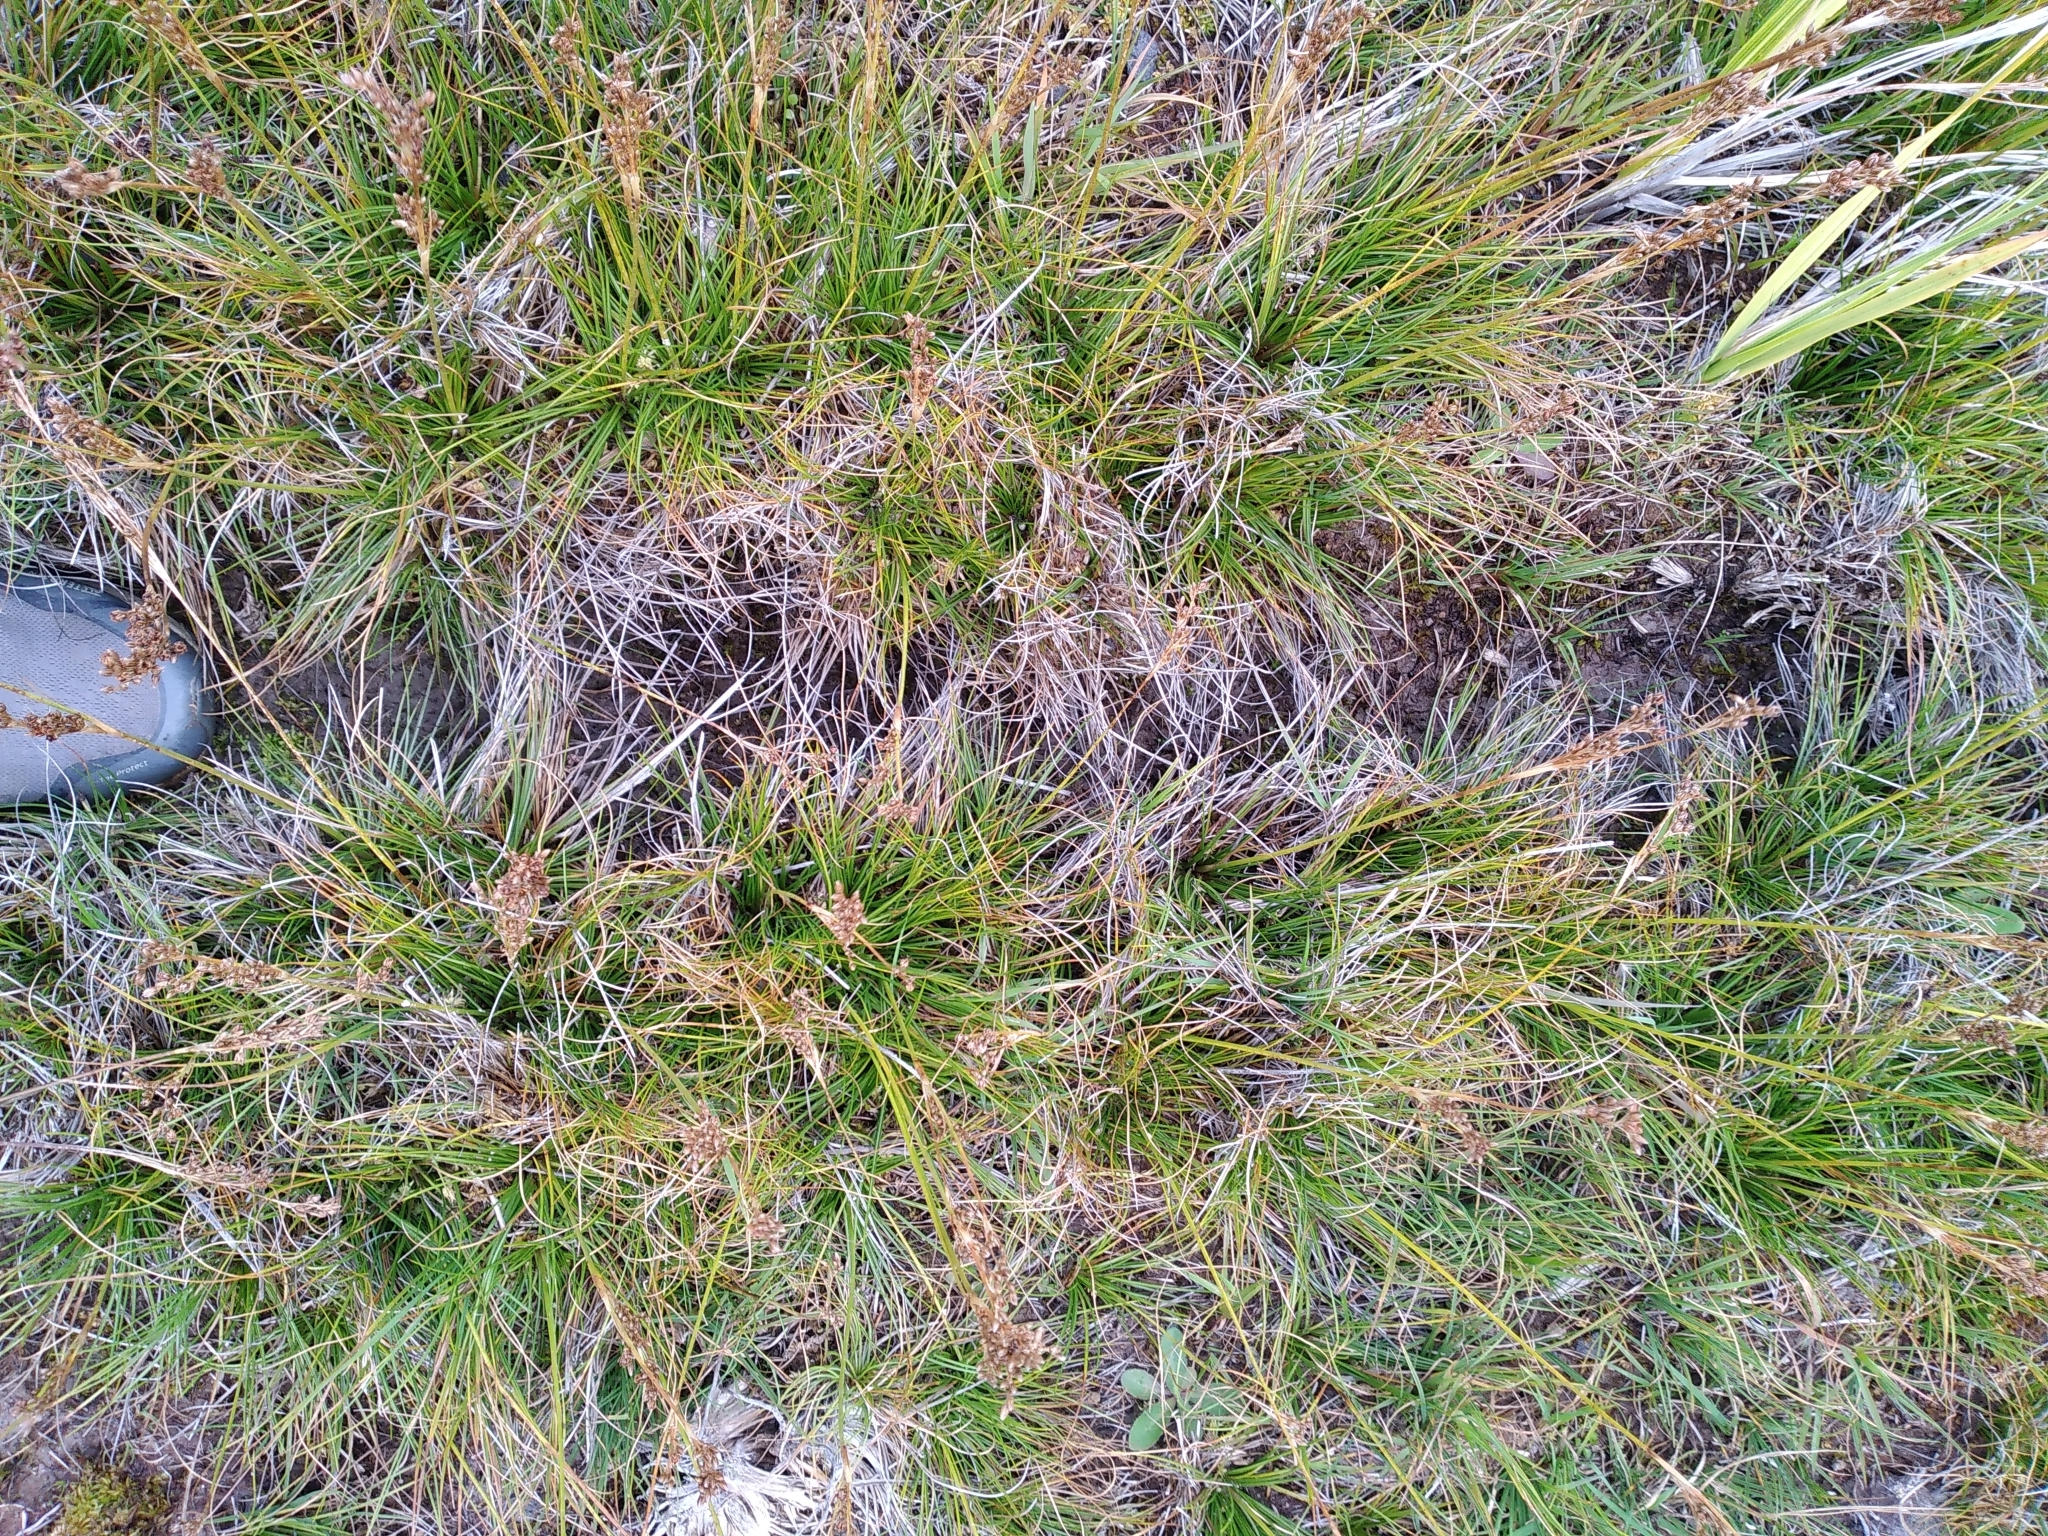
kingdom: Plantae
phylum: Tracheophyta
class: Liliopsida
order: Poales
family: Juncaceae
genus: Juncus
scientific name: Juncus squarrosus
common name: Heath rush
